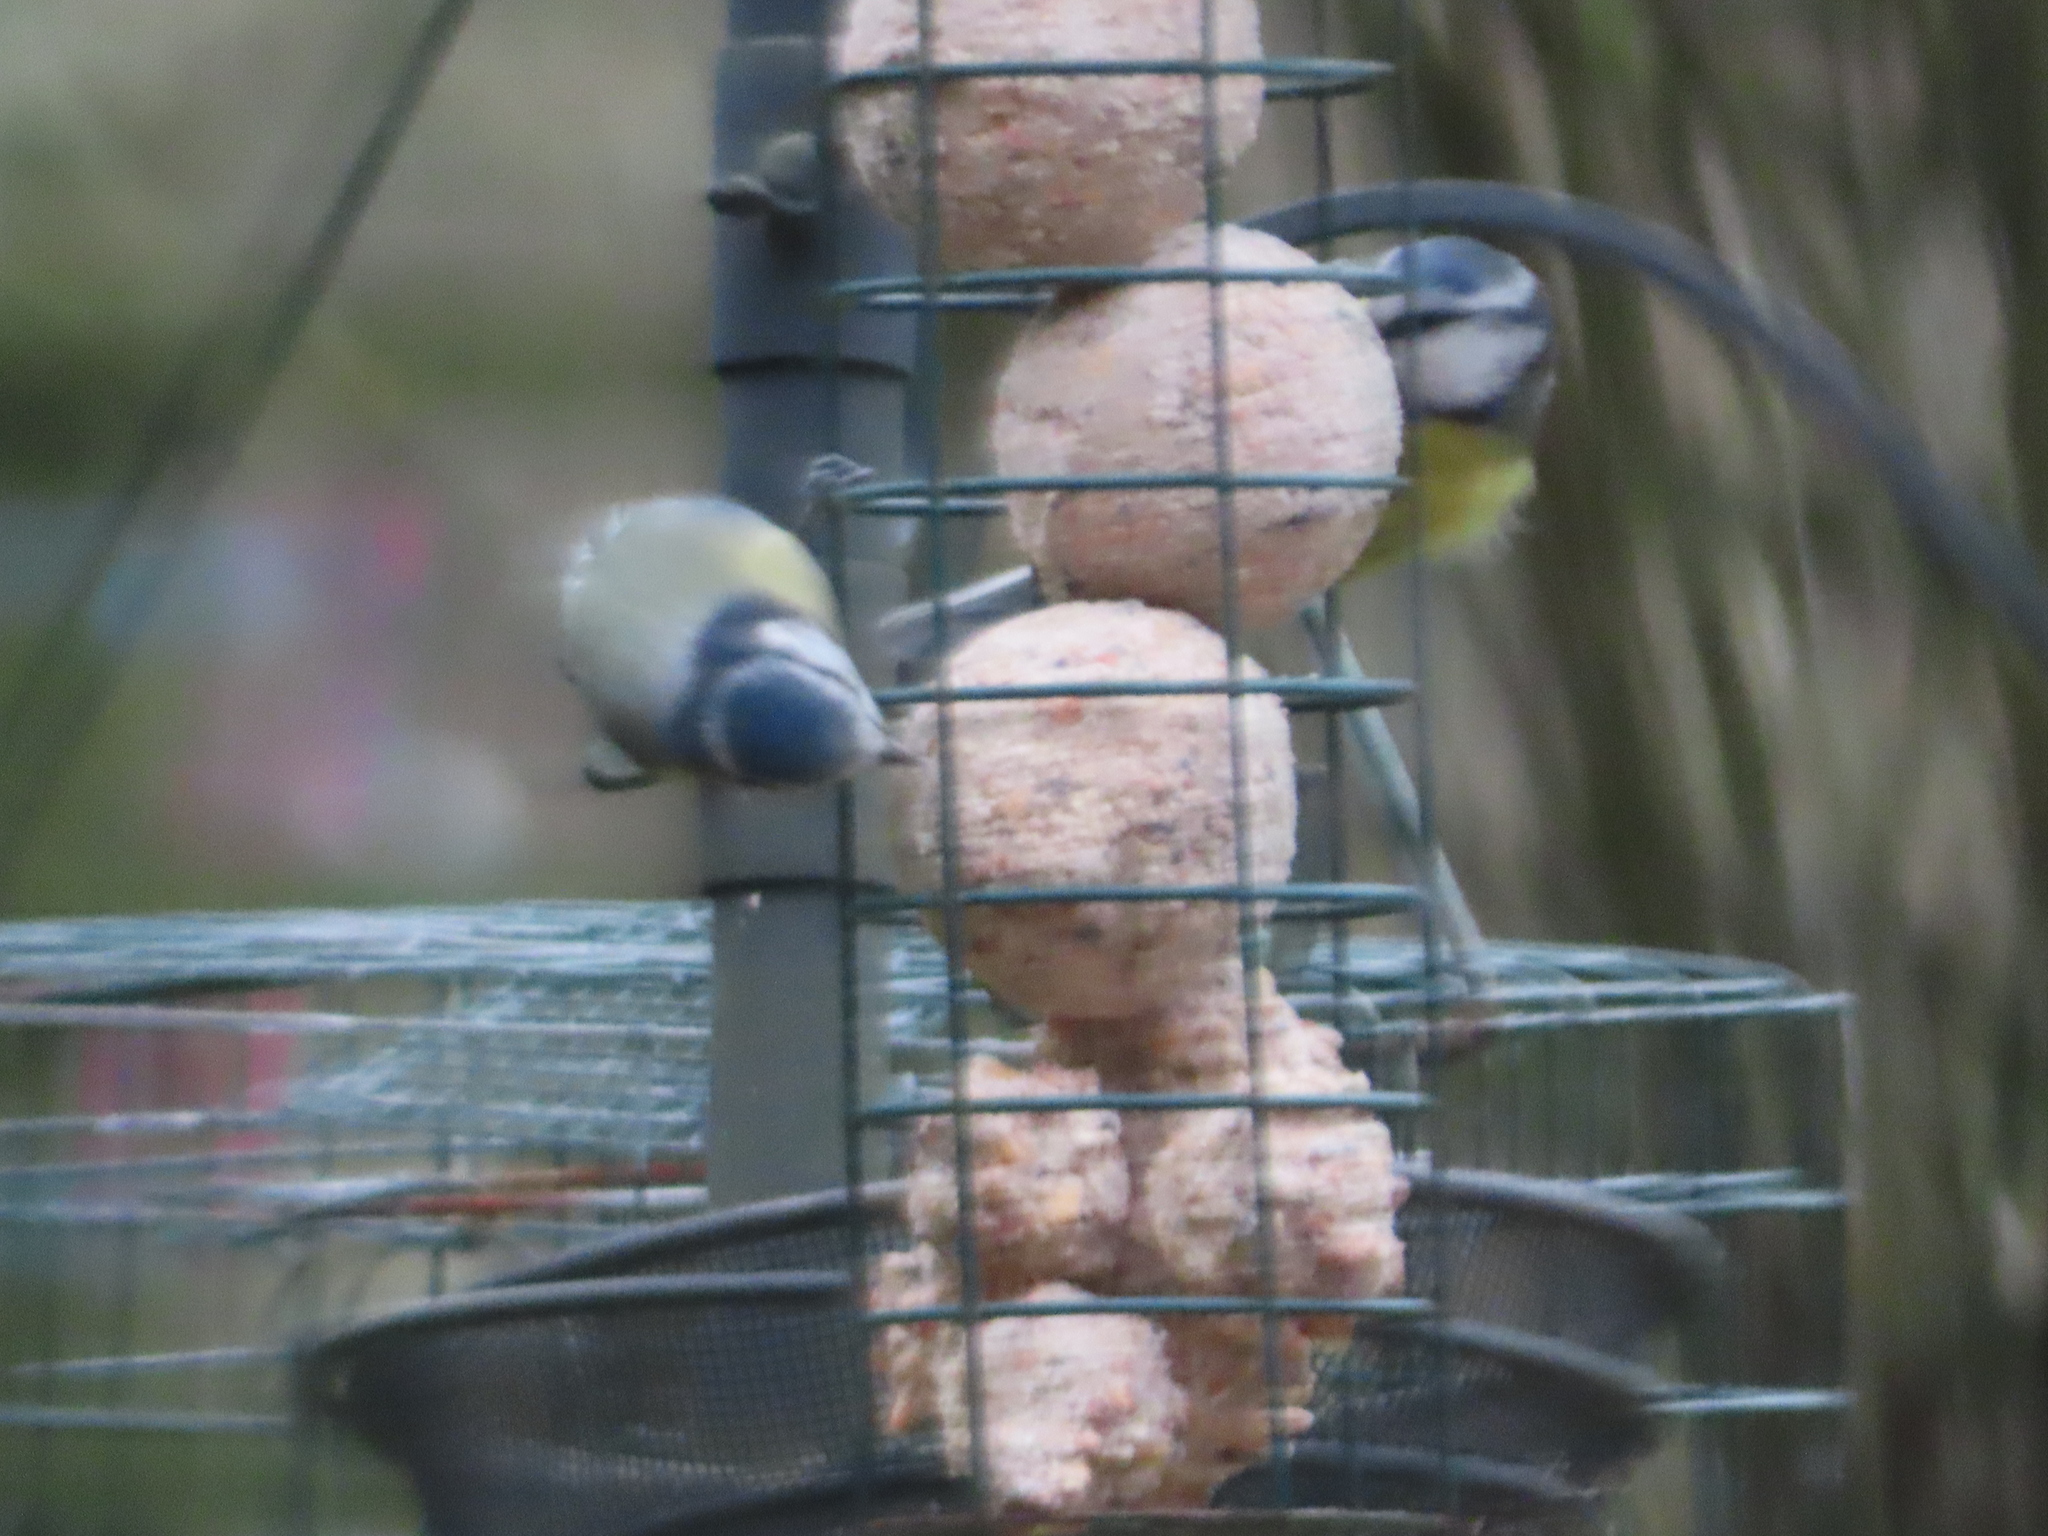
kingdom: Animalia
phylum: Chordata
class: Aves
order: Passeriformes
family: Paridae
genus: Cyanistes
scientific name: Cyanistes caeruleus
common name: Eurasian blue tit
